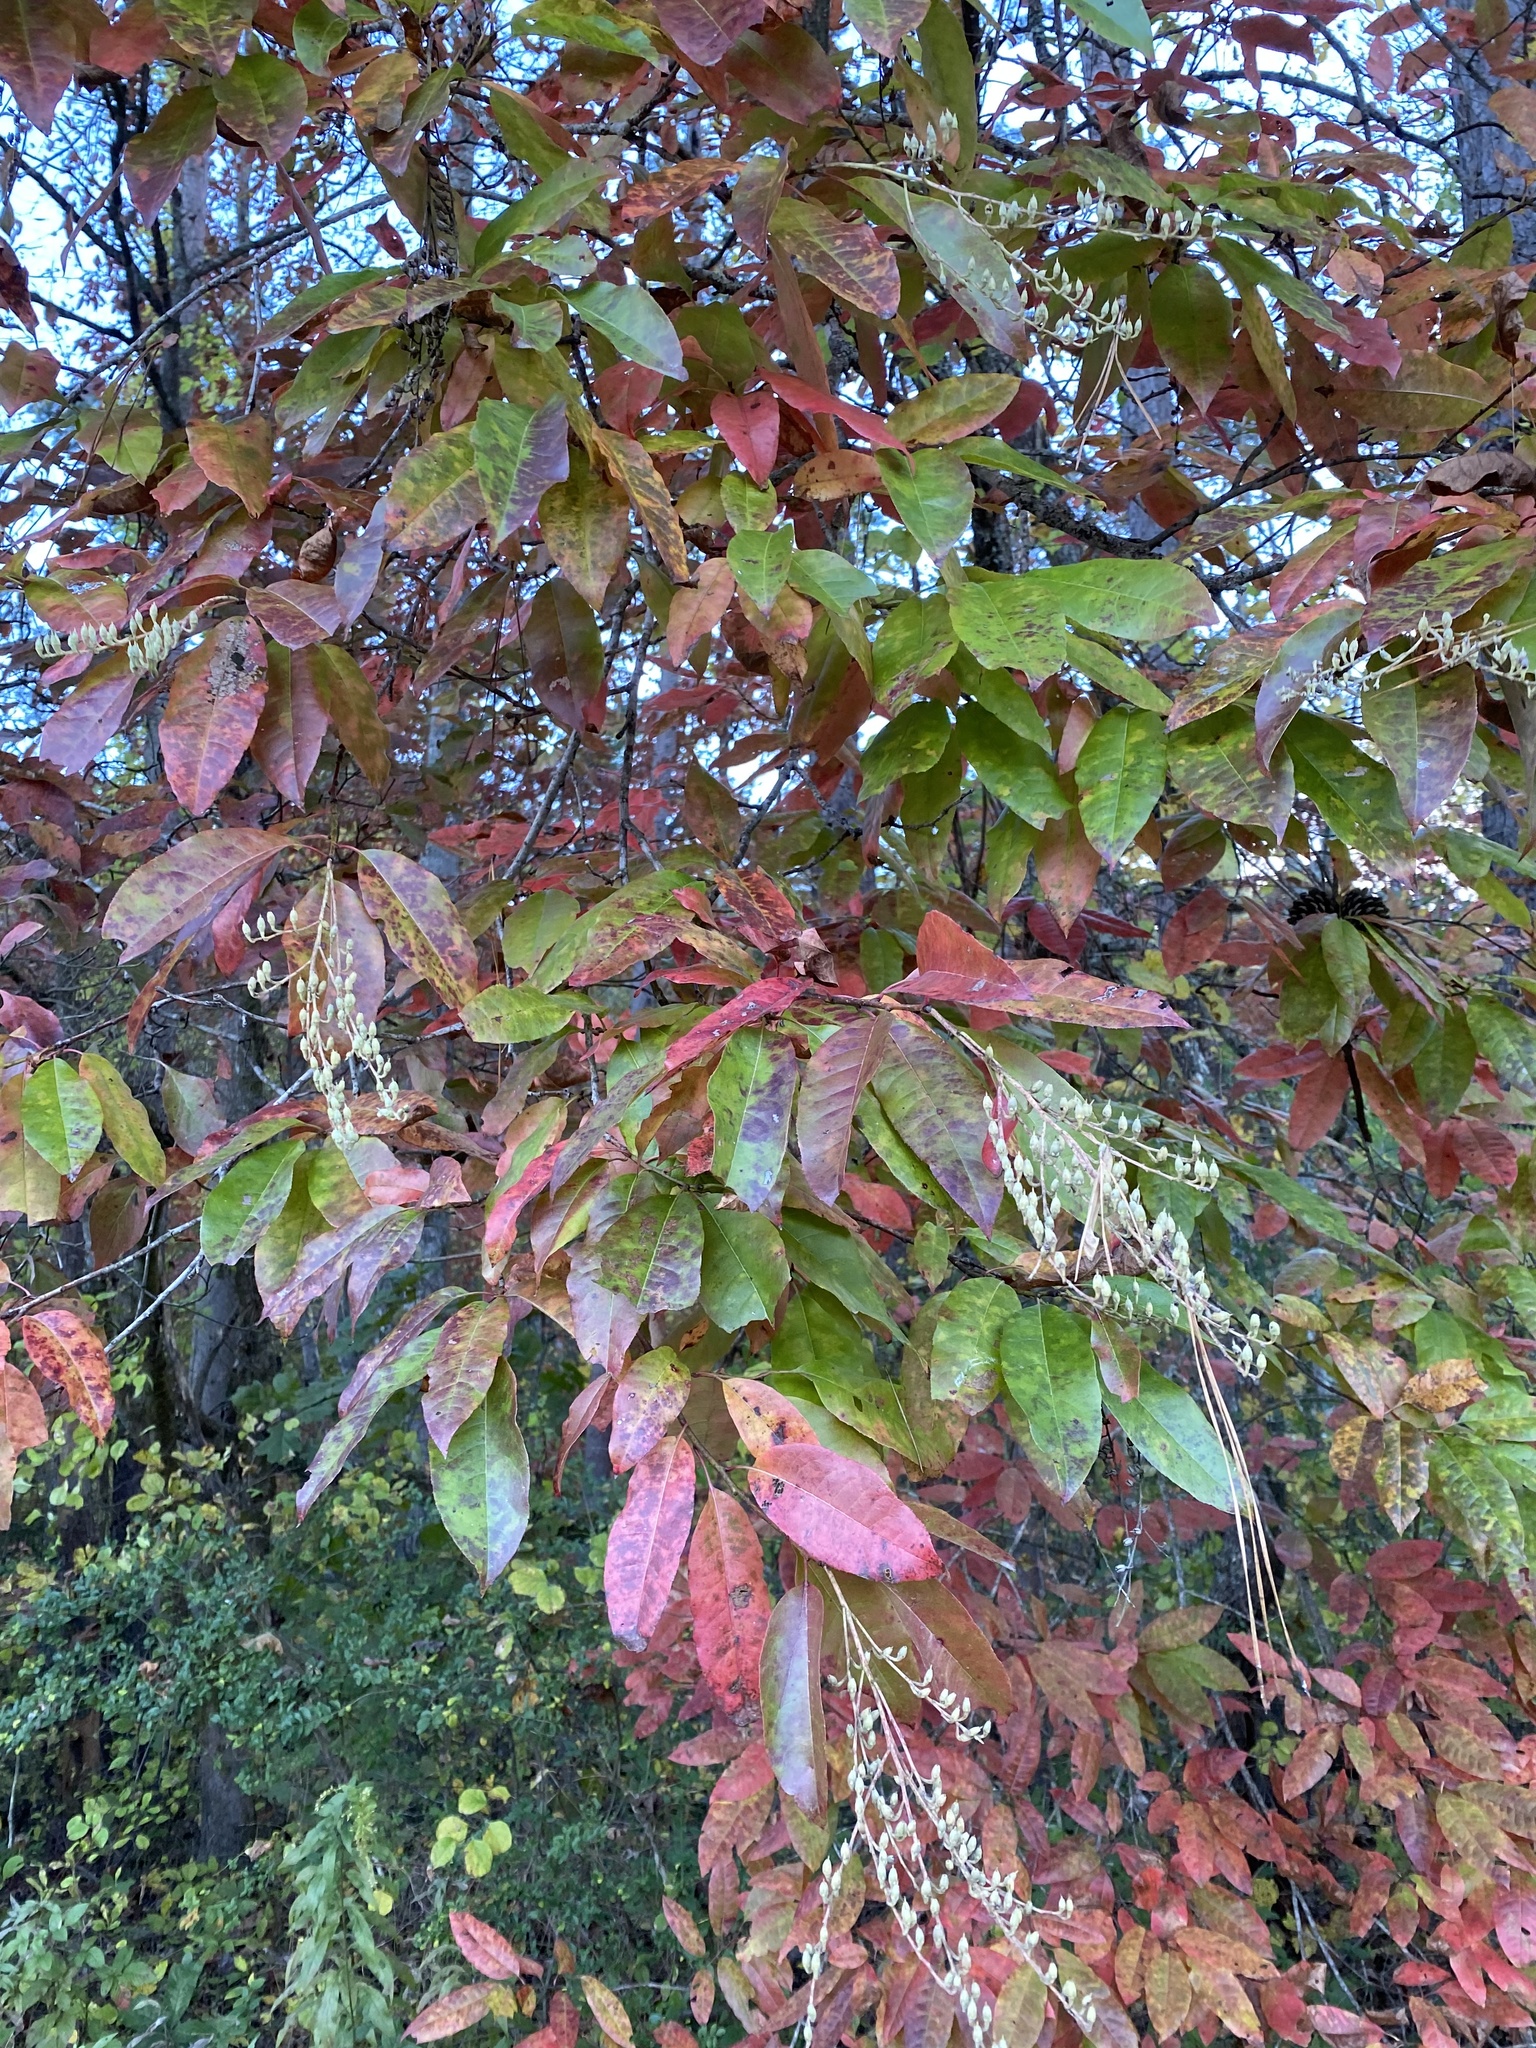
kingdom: Plantae
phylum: Tracheophyta
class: Magnoliopsida
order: Ericales
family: Ericaceae
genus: Oxydendrum
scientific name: Oxydendrum arboreum
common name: Sourwood
